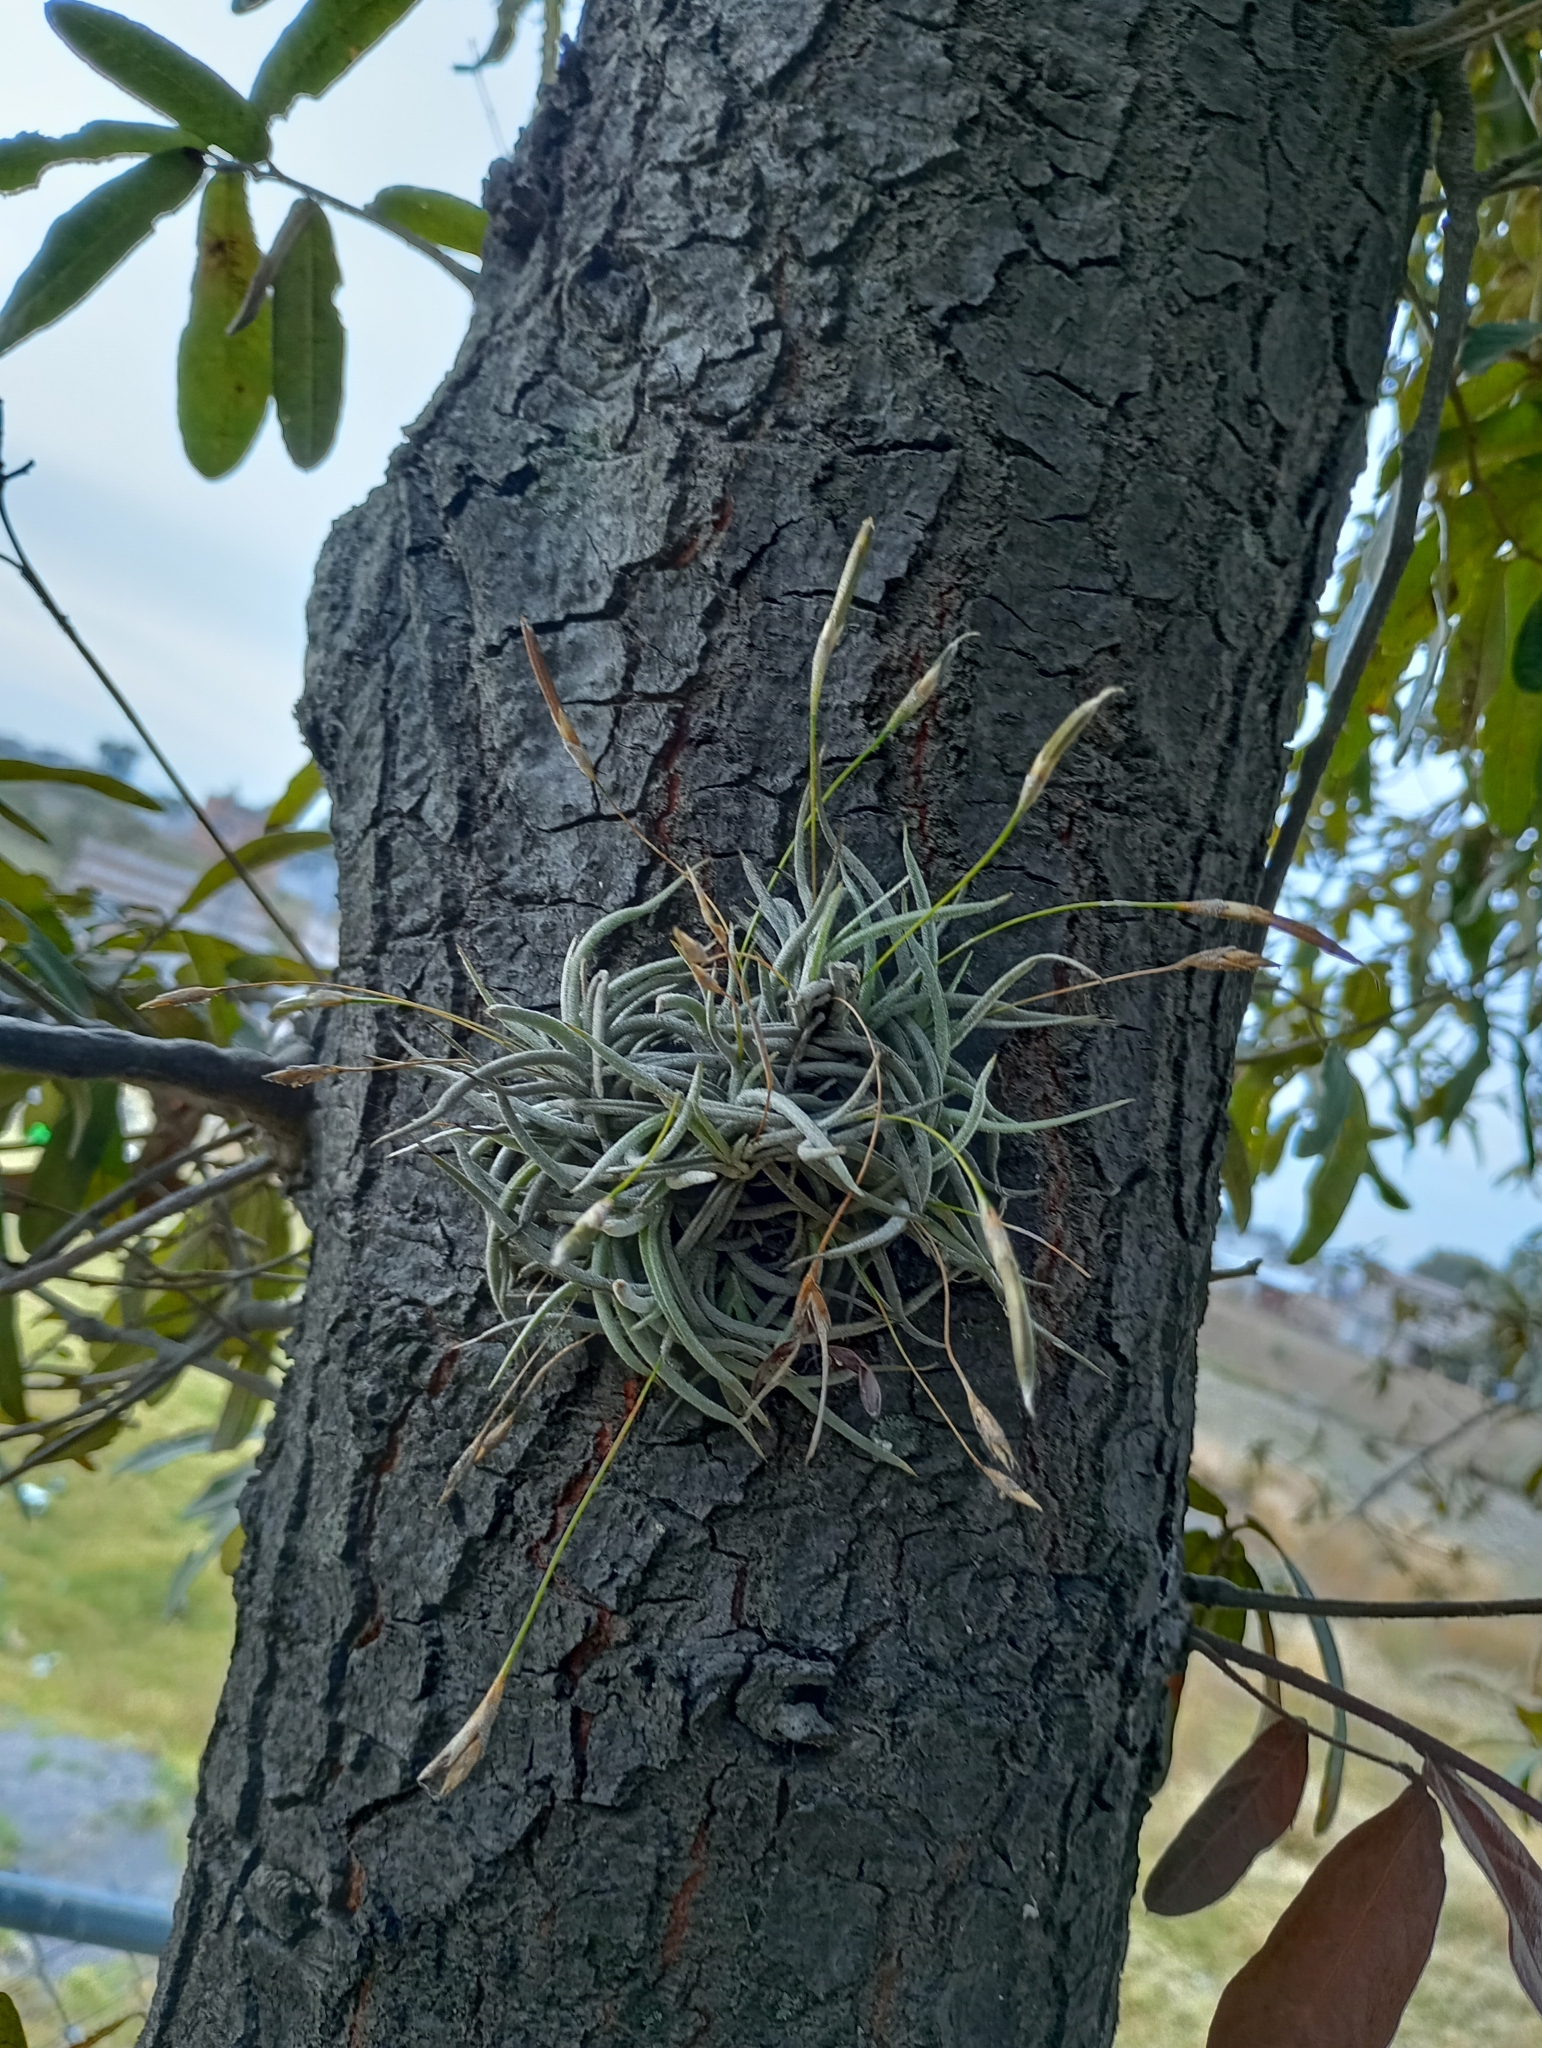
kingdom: Plantae
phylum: Tracheophyta
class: Liliopsida
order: Poales
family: Bromeliaceae
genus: Tillandsia
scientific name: Tillandsia recurvata
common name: Small ballmoss
